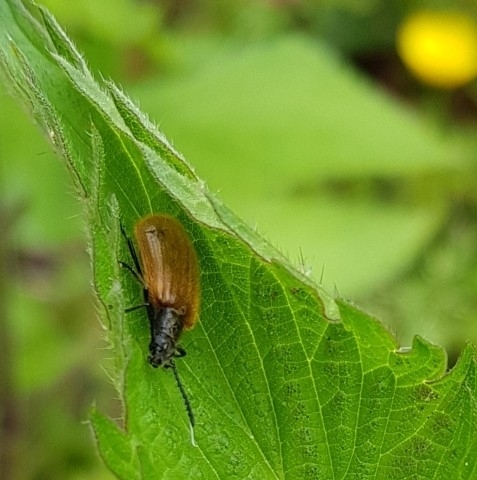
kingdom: Animalia
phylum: Arthropoda
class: Insecta
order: Coleoptera
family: Tenebrionidae
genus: Lagria
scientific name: Lagria hirta
